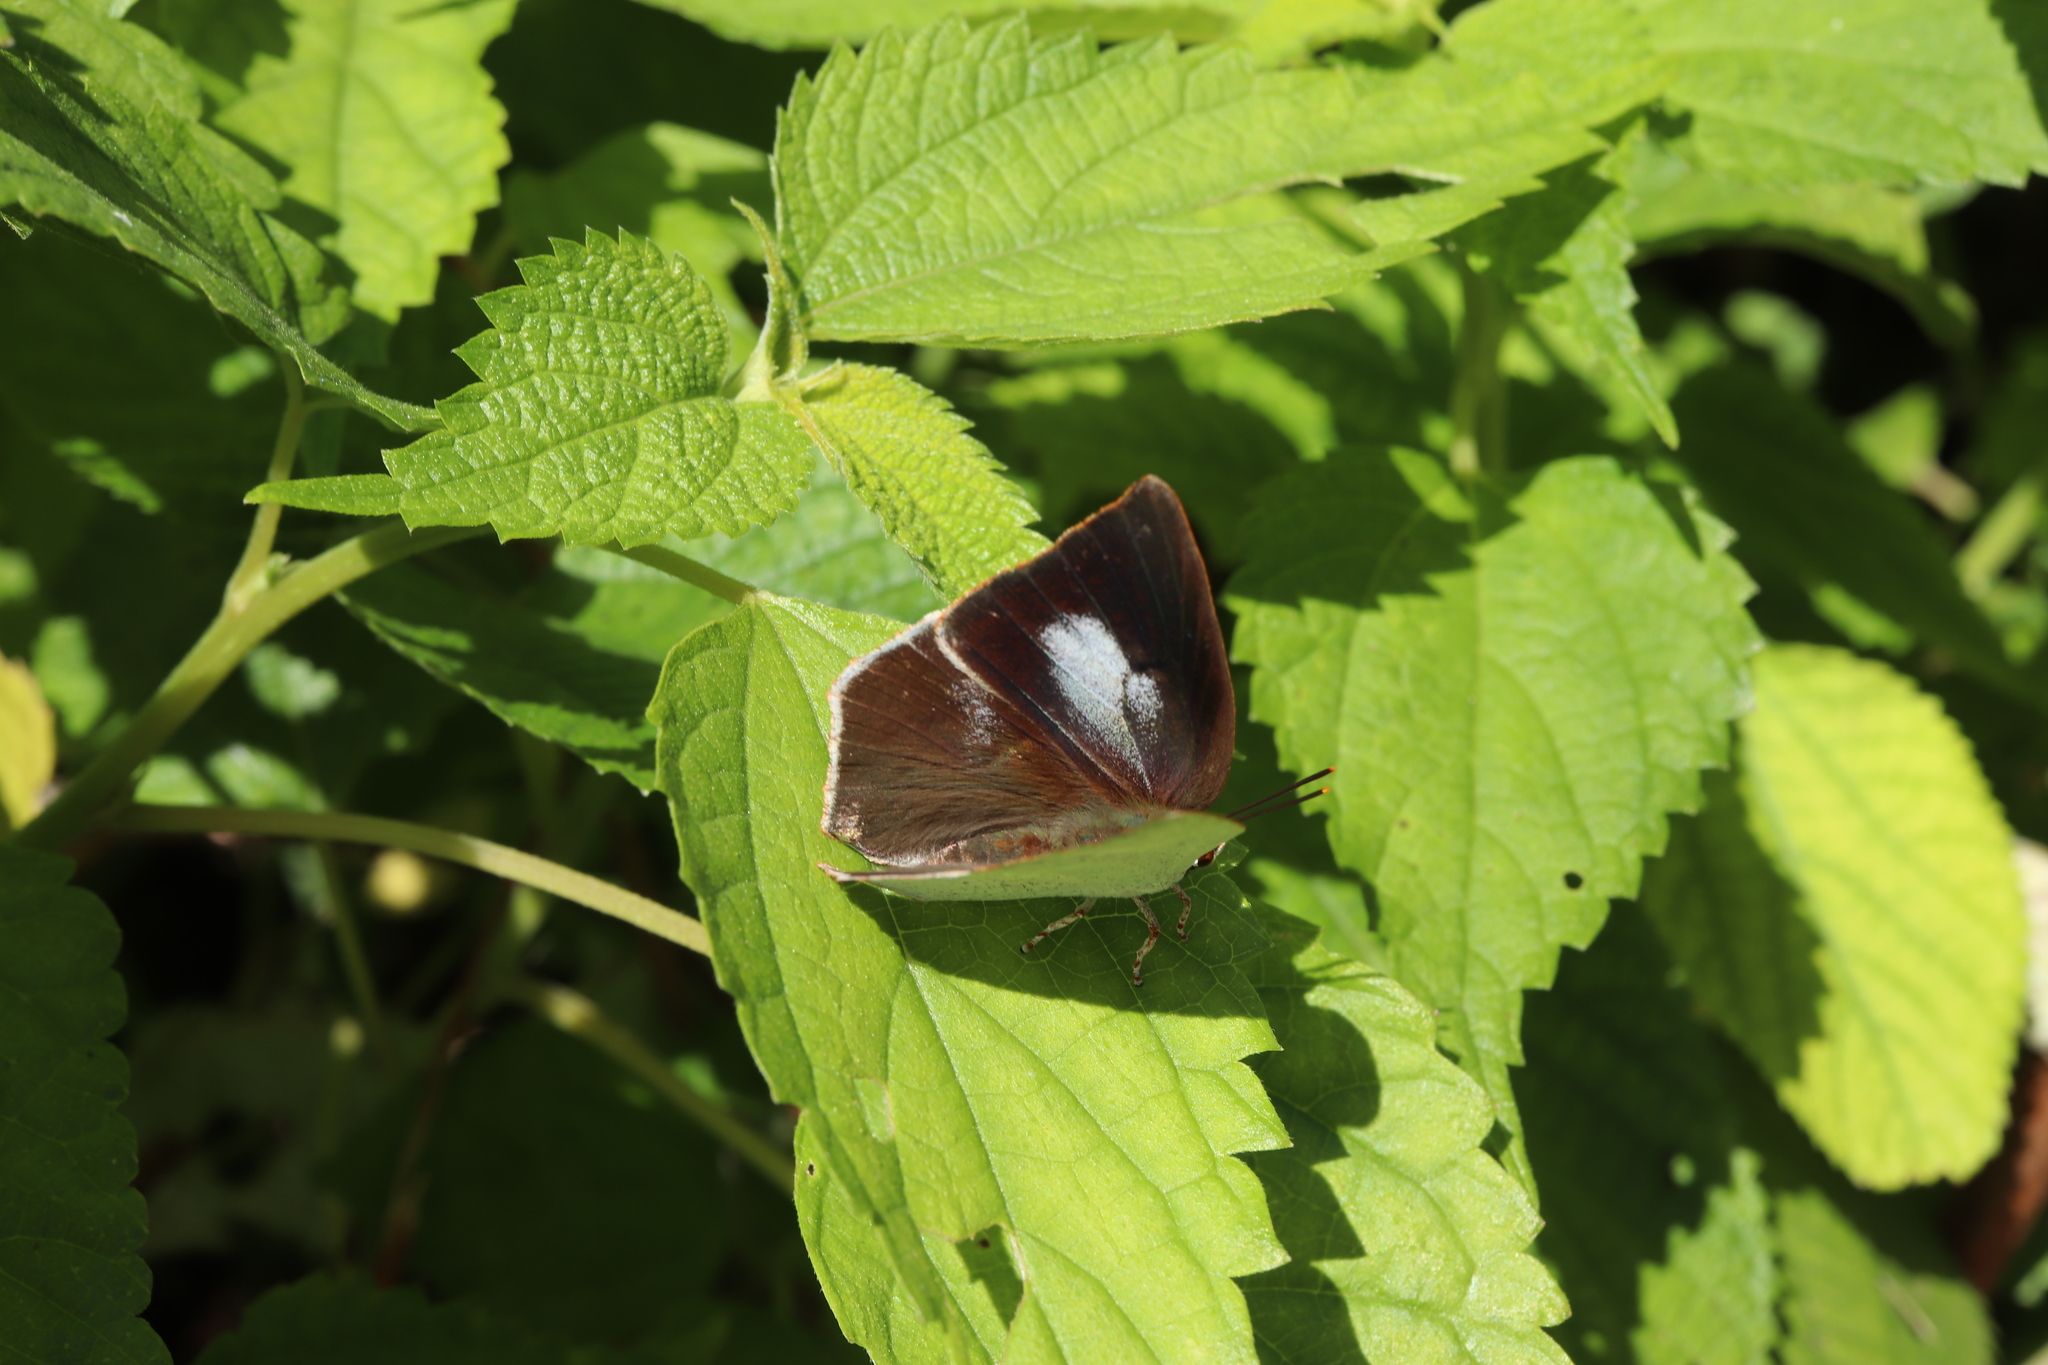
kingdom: Animalia
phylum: Arthropoda
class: Insecta
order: Lepidoptera
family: Lycaenidae
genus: Curetis
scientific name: Curetis acuta
